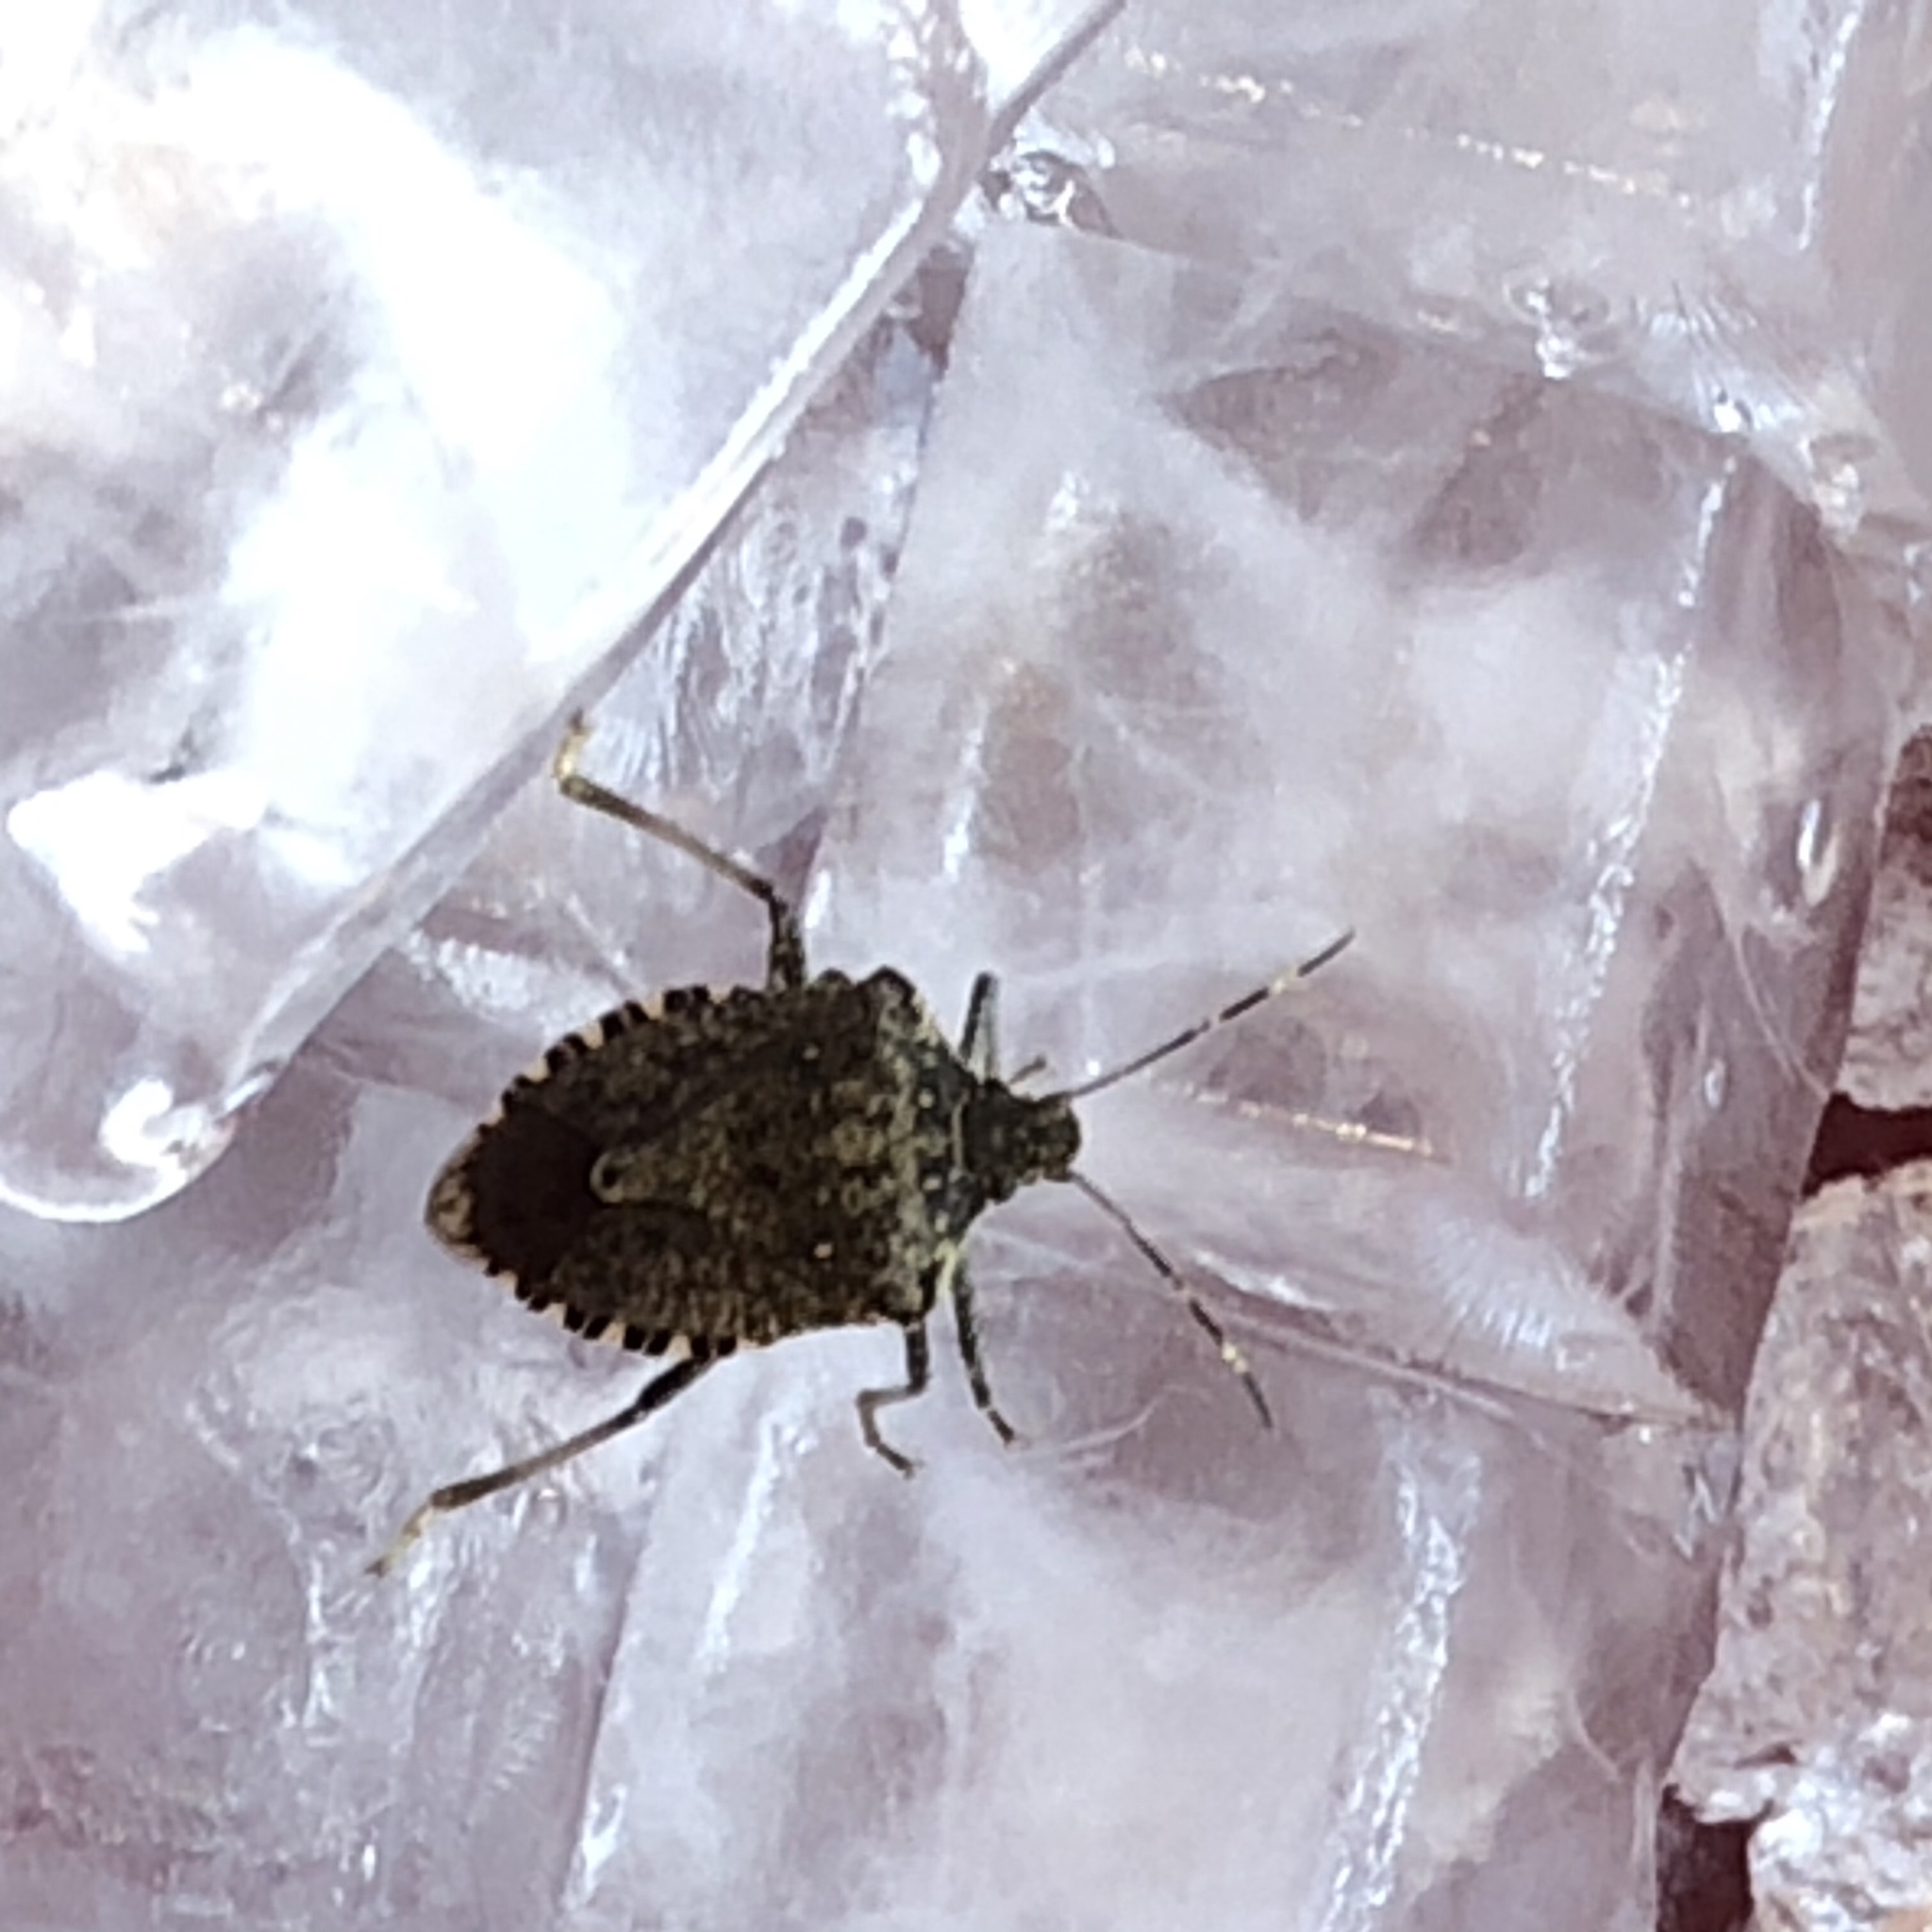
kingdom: Animalia
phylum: Arthropoda
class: Insecta
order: Hemiptera
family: Pentatomidae
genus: Halyomorpha
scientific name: Halyomorpha halys
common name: Brown marmorated stink bug
